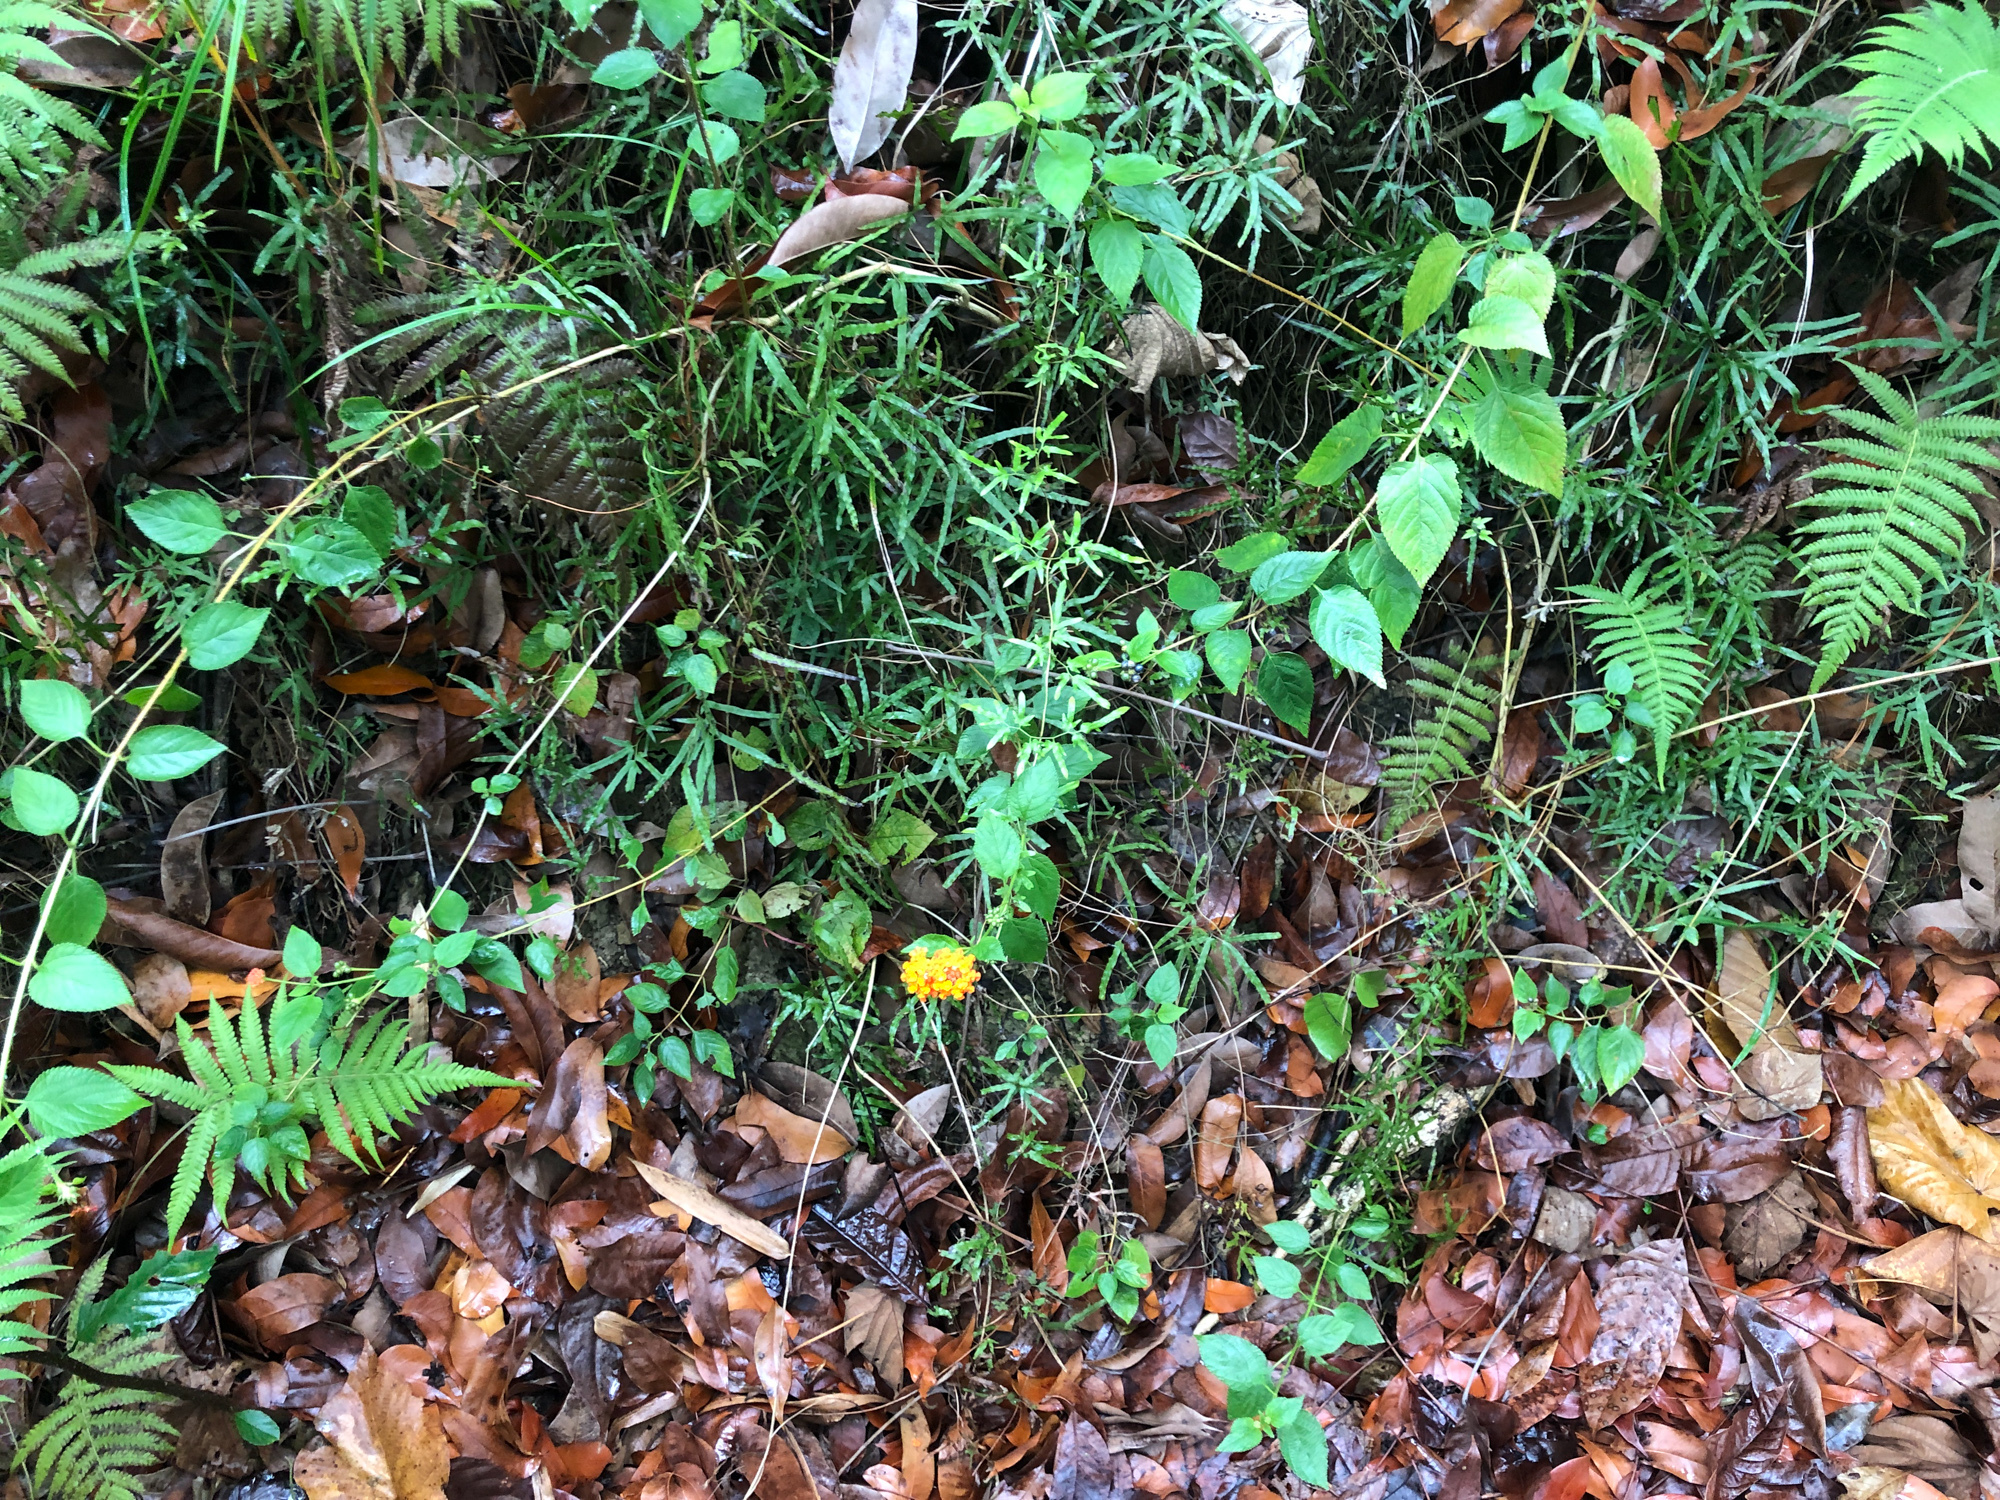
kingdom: Plantae
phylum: Tracheophyta
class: Magnoliopsida
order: Lamiales
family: Verbenaceae
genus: Lantana
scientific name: Lantana camara
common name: Lantana
